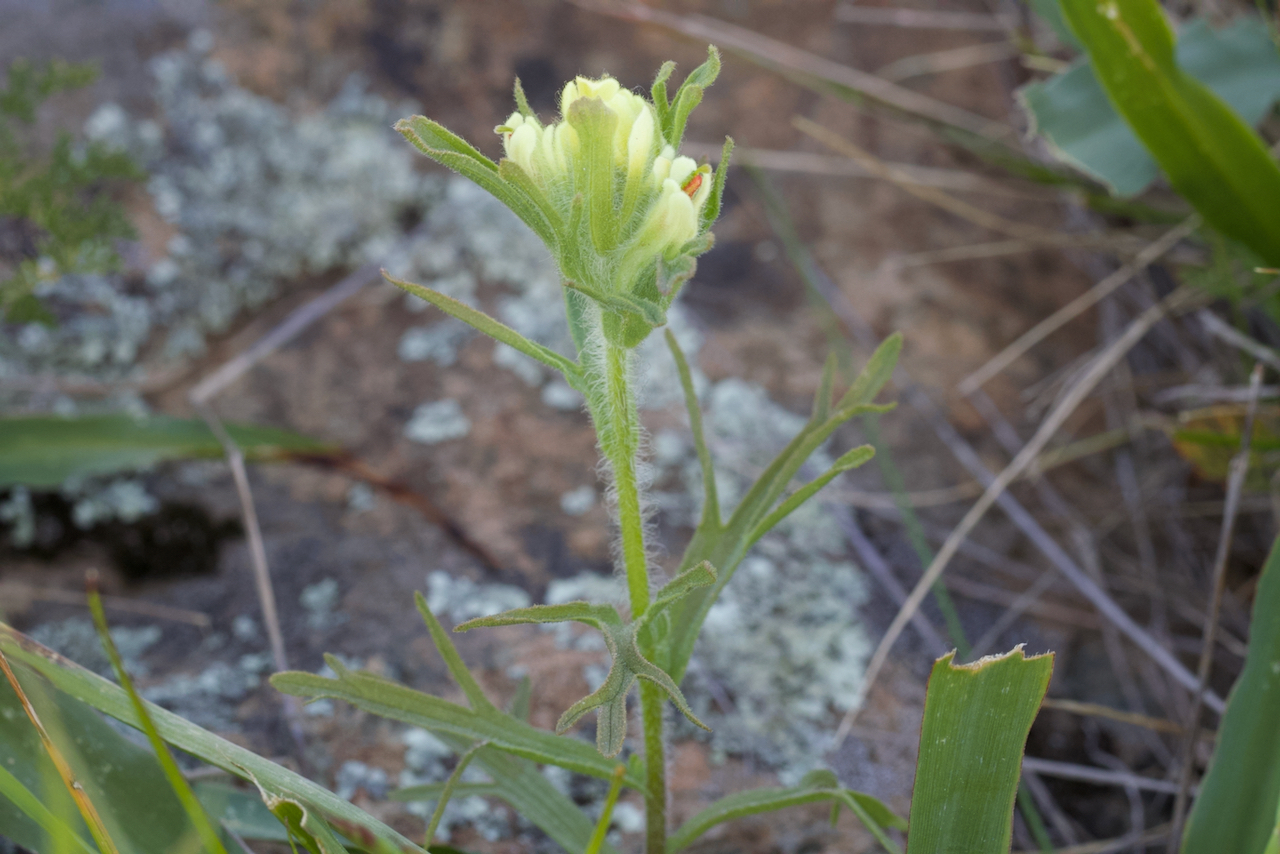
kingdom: Plantae
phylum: Tracheophyta
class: Magnoliopsida
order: Lamiales
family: Orobanchaceae
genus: Castilleja
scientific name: Castilleja affinis
